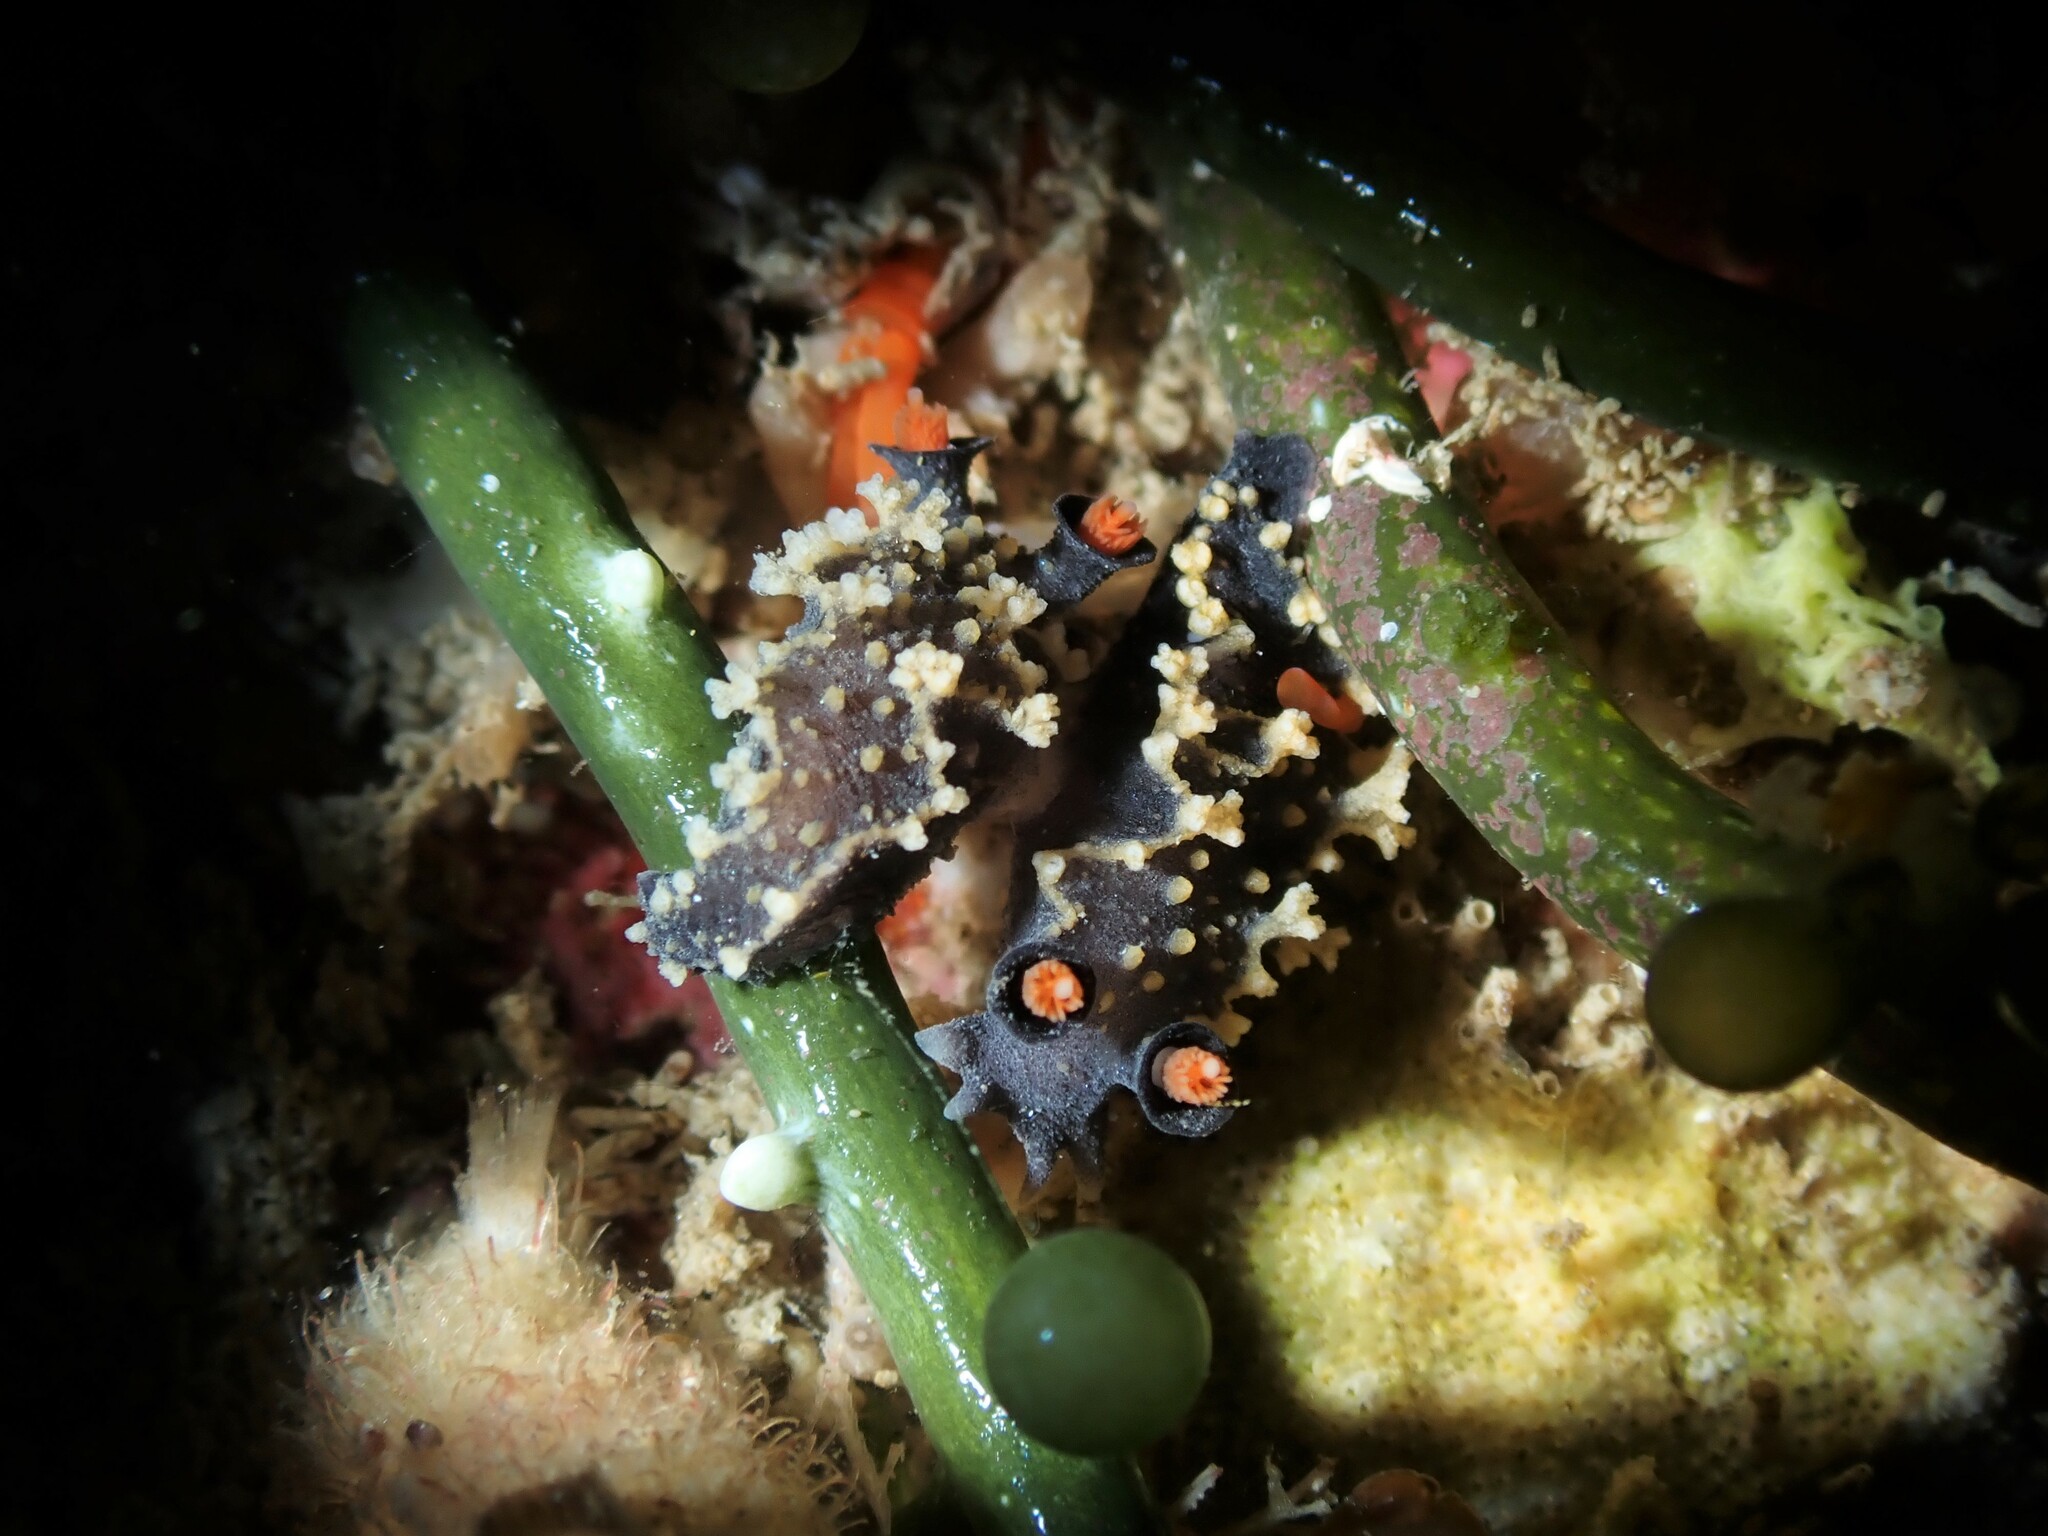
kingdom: Animalia
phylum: Mollusca
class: Gastropoda
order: Nudibranchia
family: Tritoniidae
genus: Tritonia
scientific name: Tritonia flemingi
